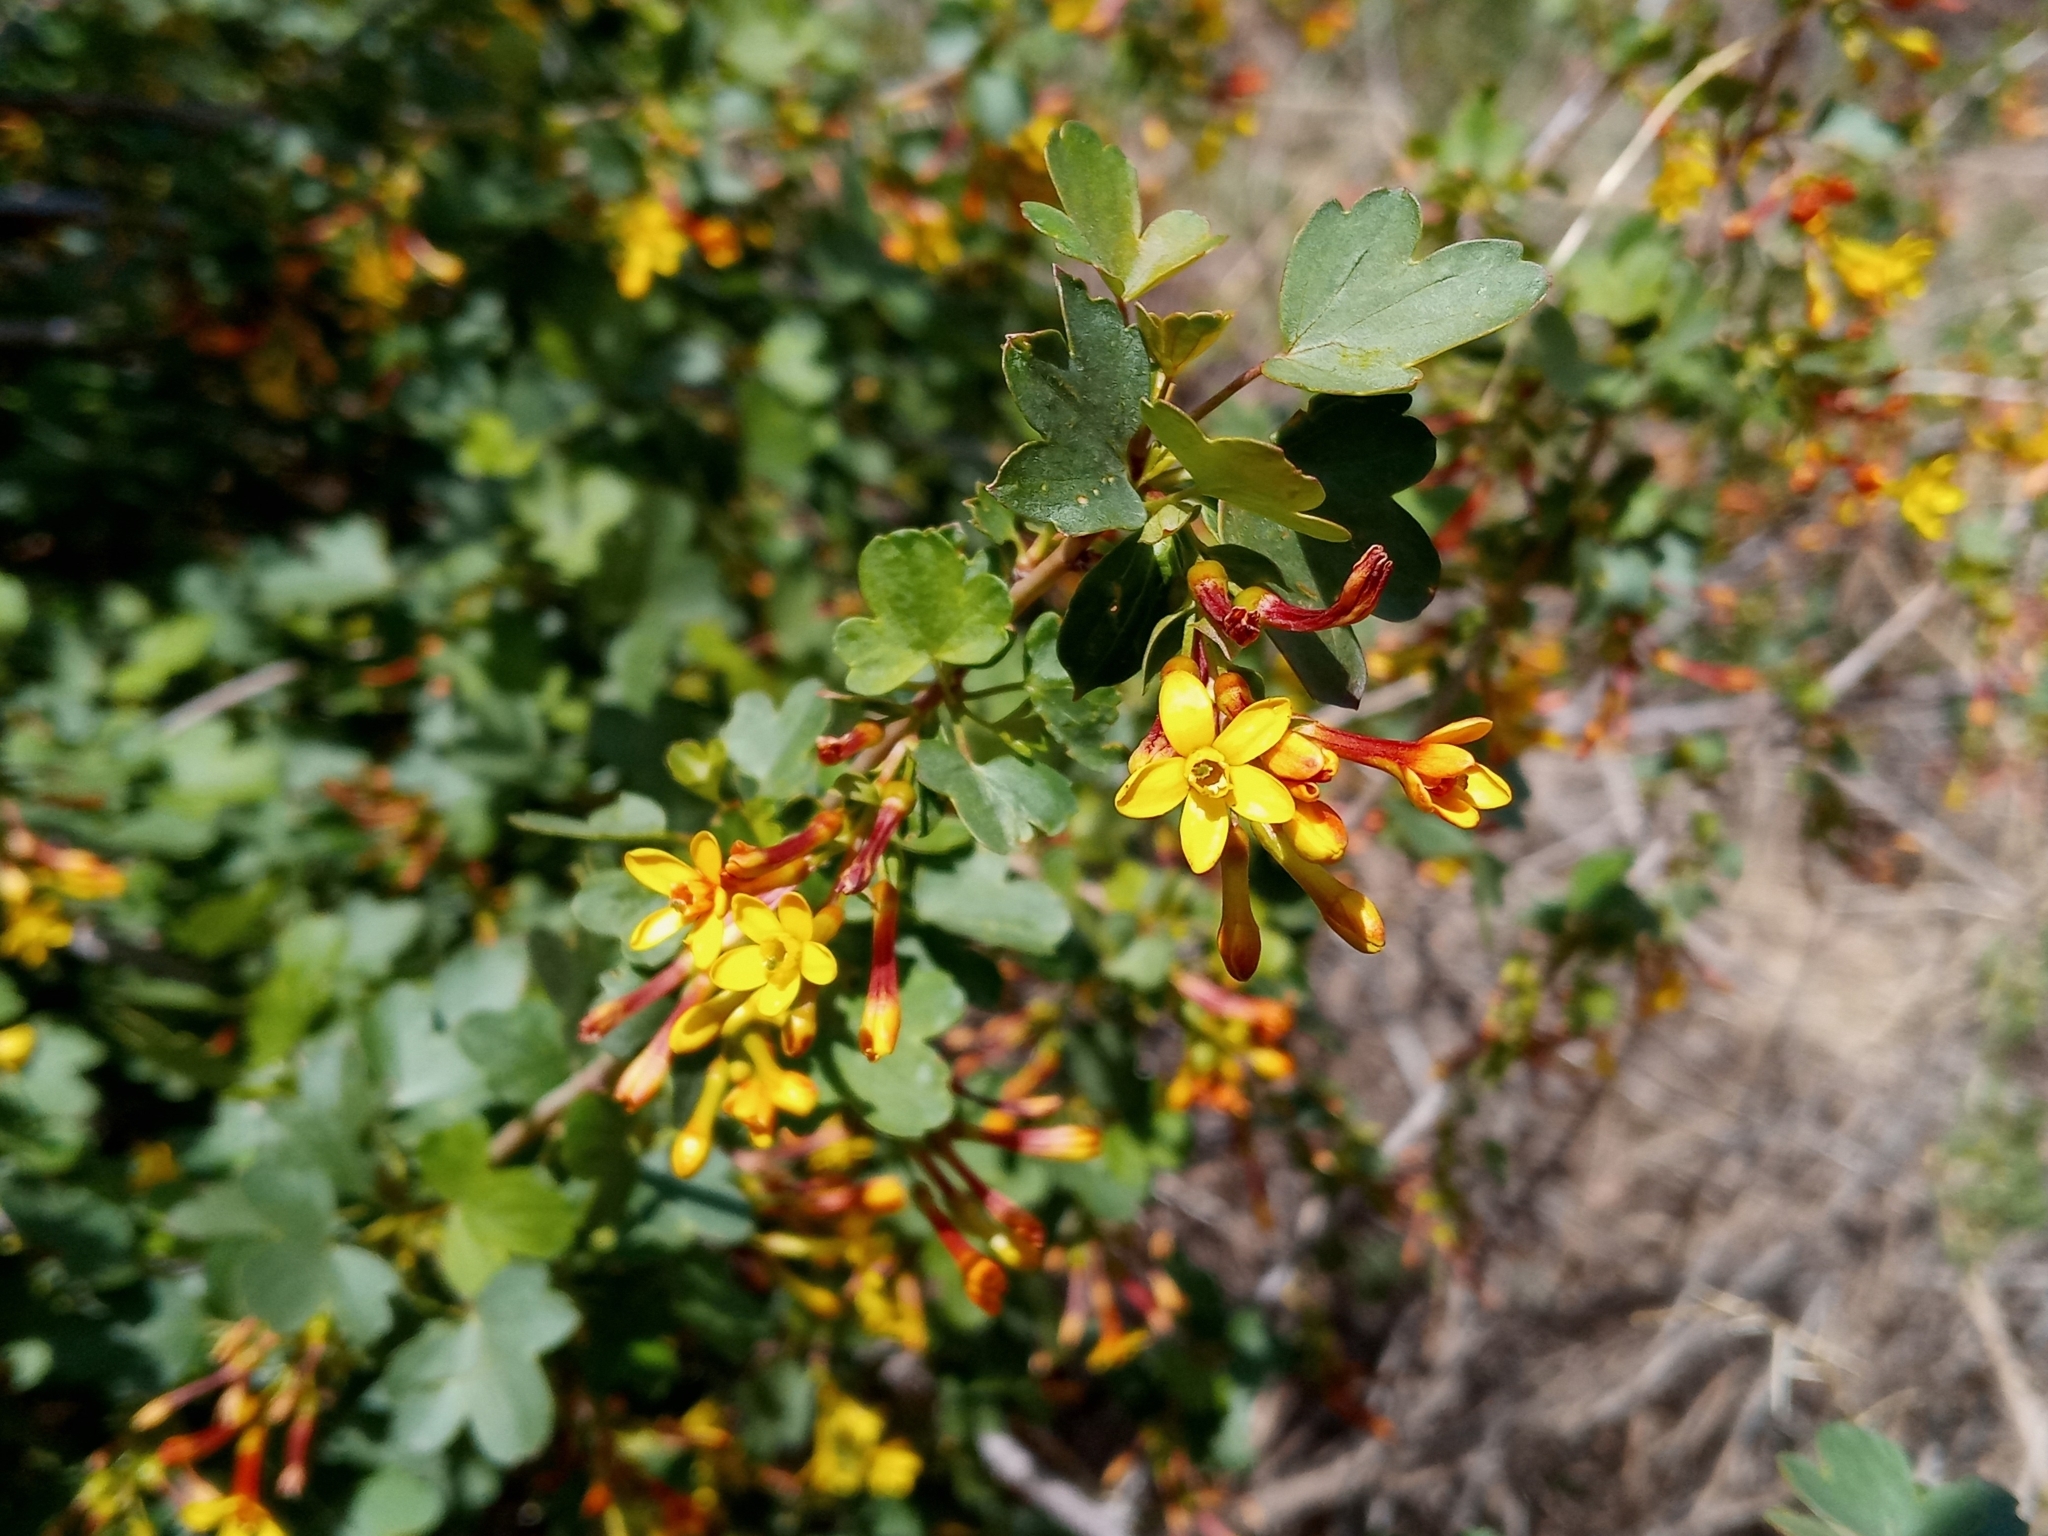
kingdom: Plantae
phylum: Tracheophyta
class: Magnoliopsida
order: Saxifragales
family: Grossulariaceae
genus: Ribes
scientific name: Ribes aureum
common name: Golden currant
